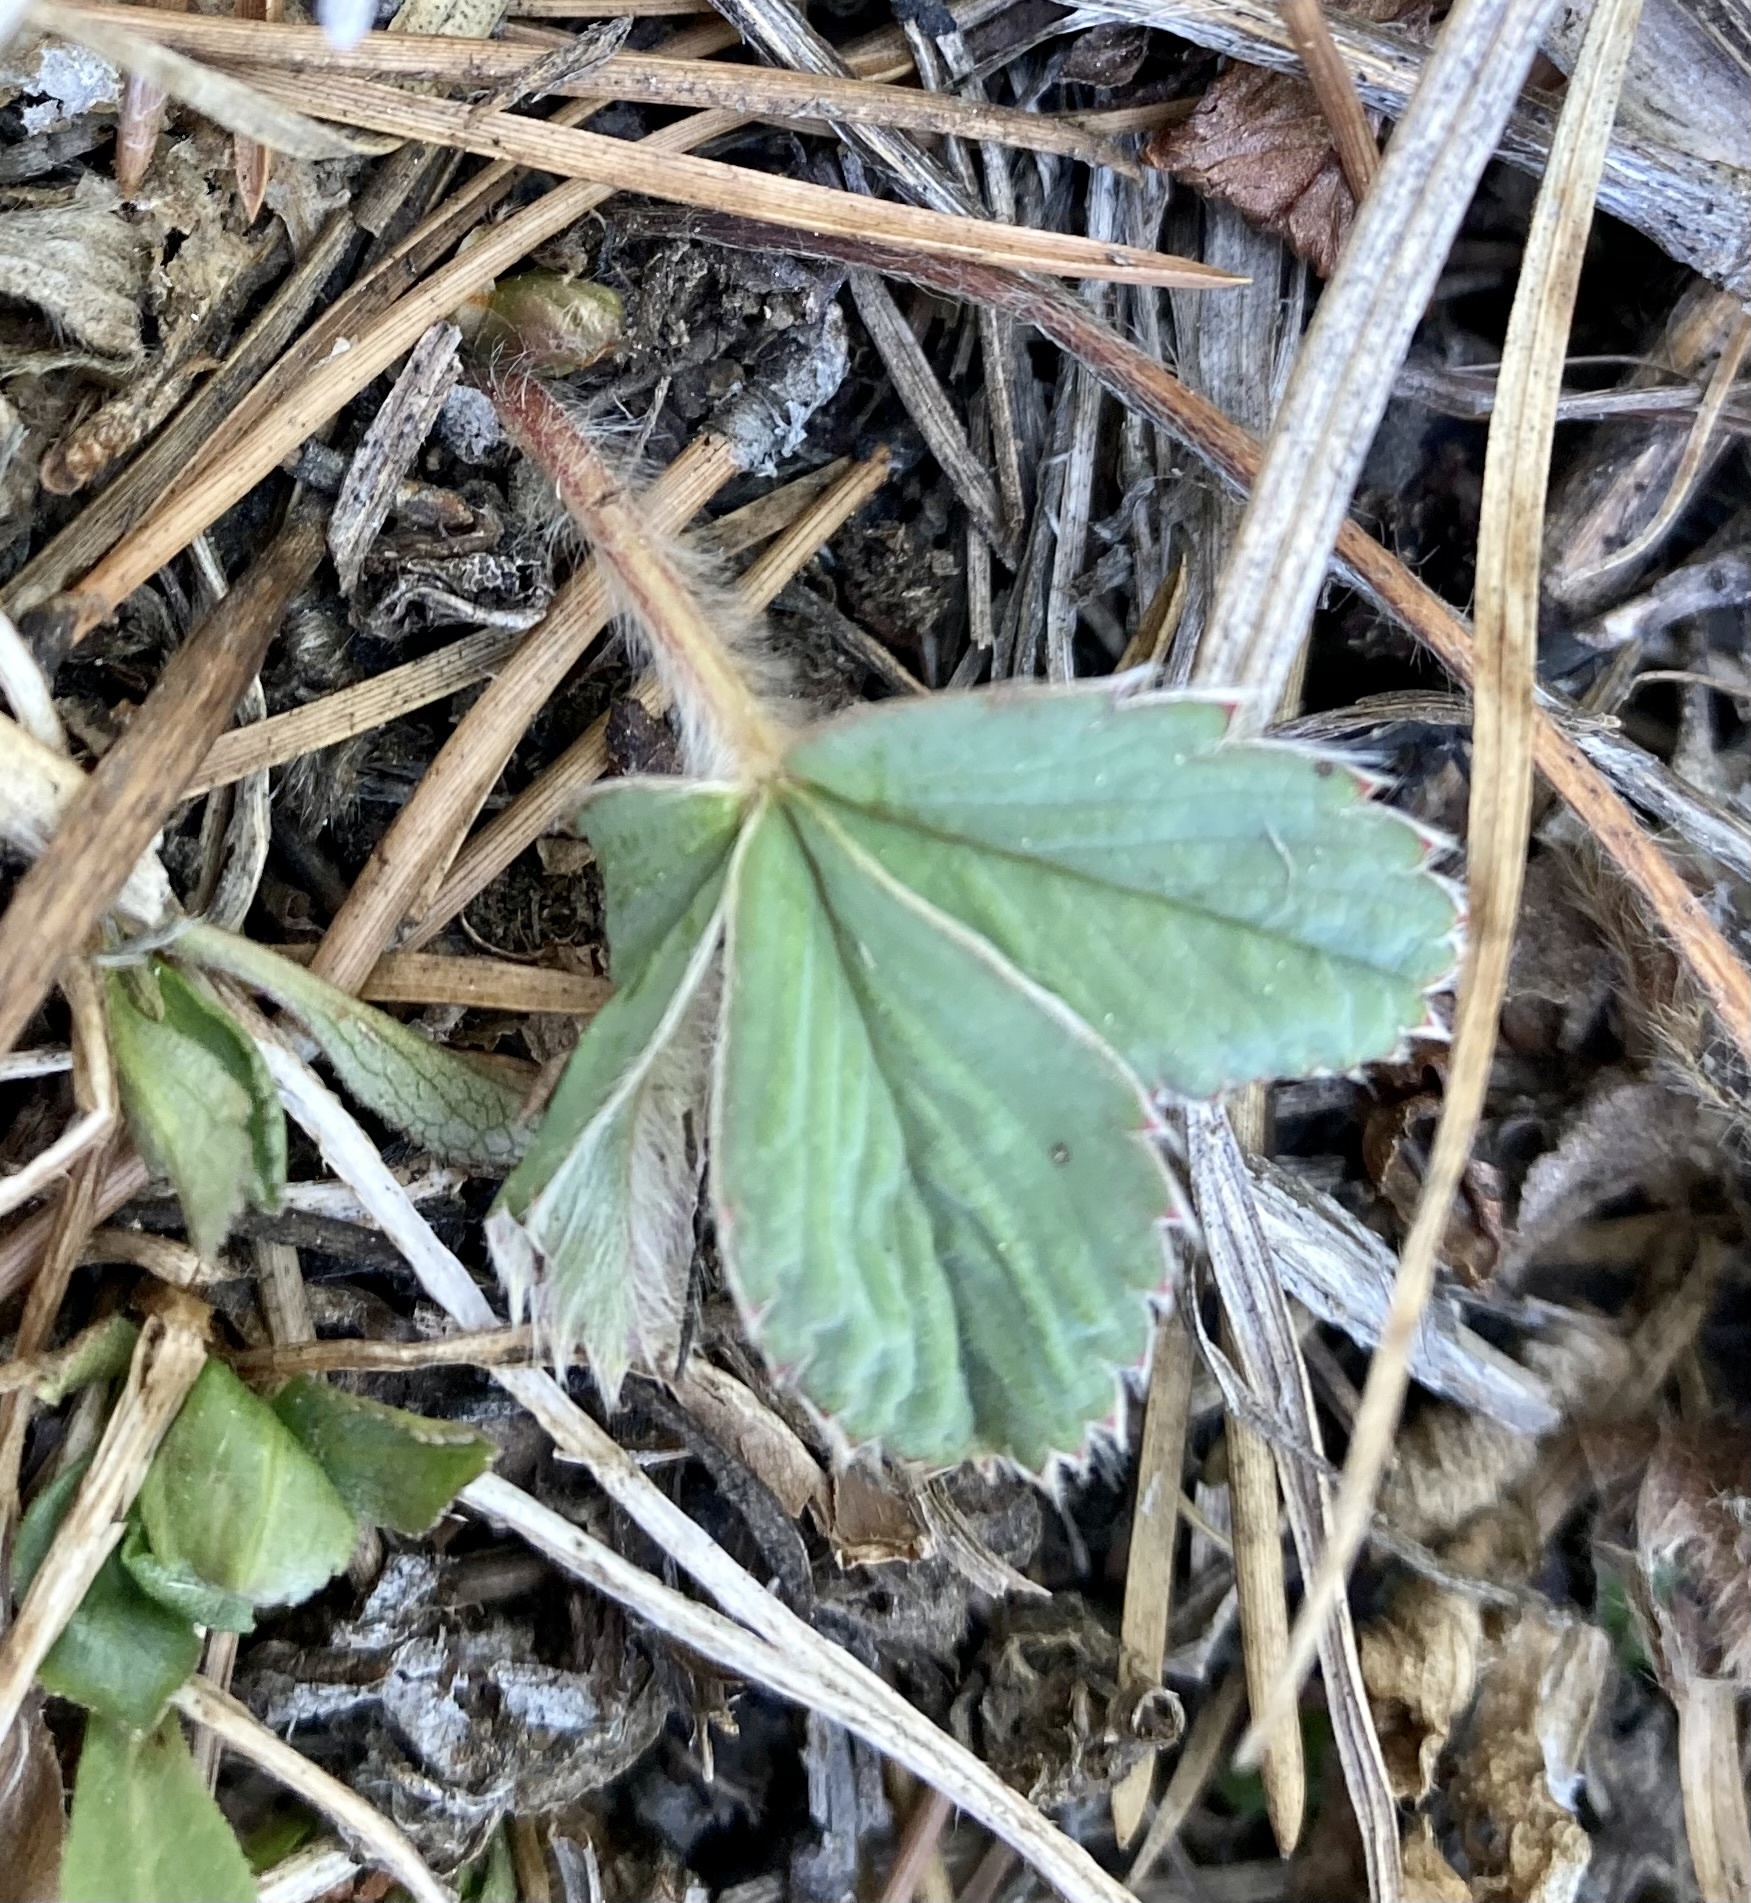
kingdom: Plantae
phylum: Tracheophyta
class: Magnoliopsida
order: Rosales
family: Rosaceae
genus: Fragaria
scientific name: Fragaria virginiana
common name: Thickleaved wild strawberry
